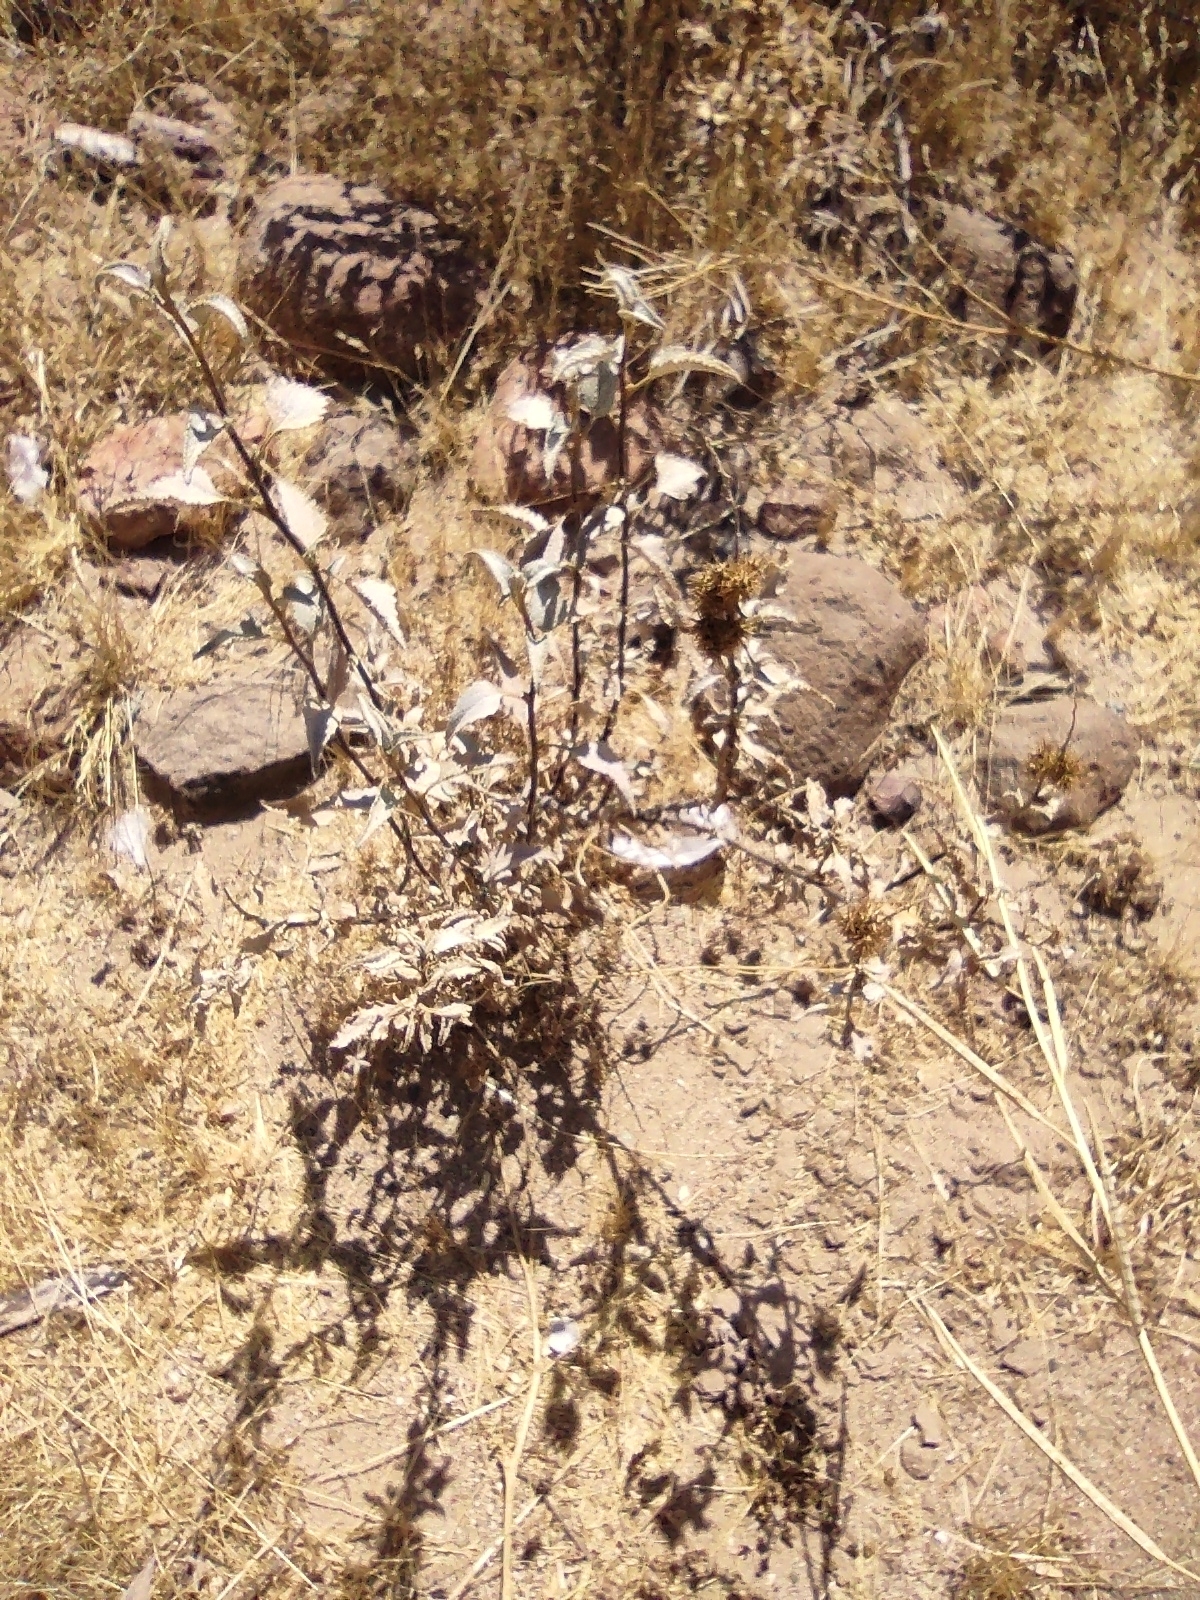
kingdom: Plantae
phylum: Tracheophyta
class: Magnoliopsida
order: Asterales
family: Asteraceae
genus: Ambrosia
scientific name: Ambrosia deltoidea
